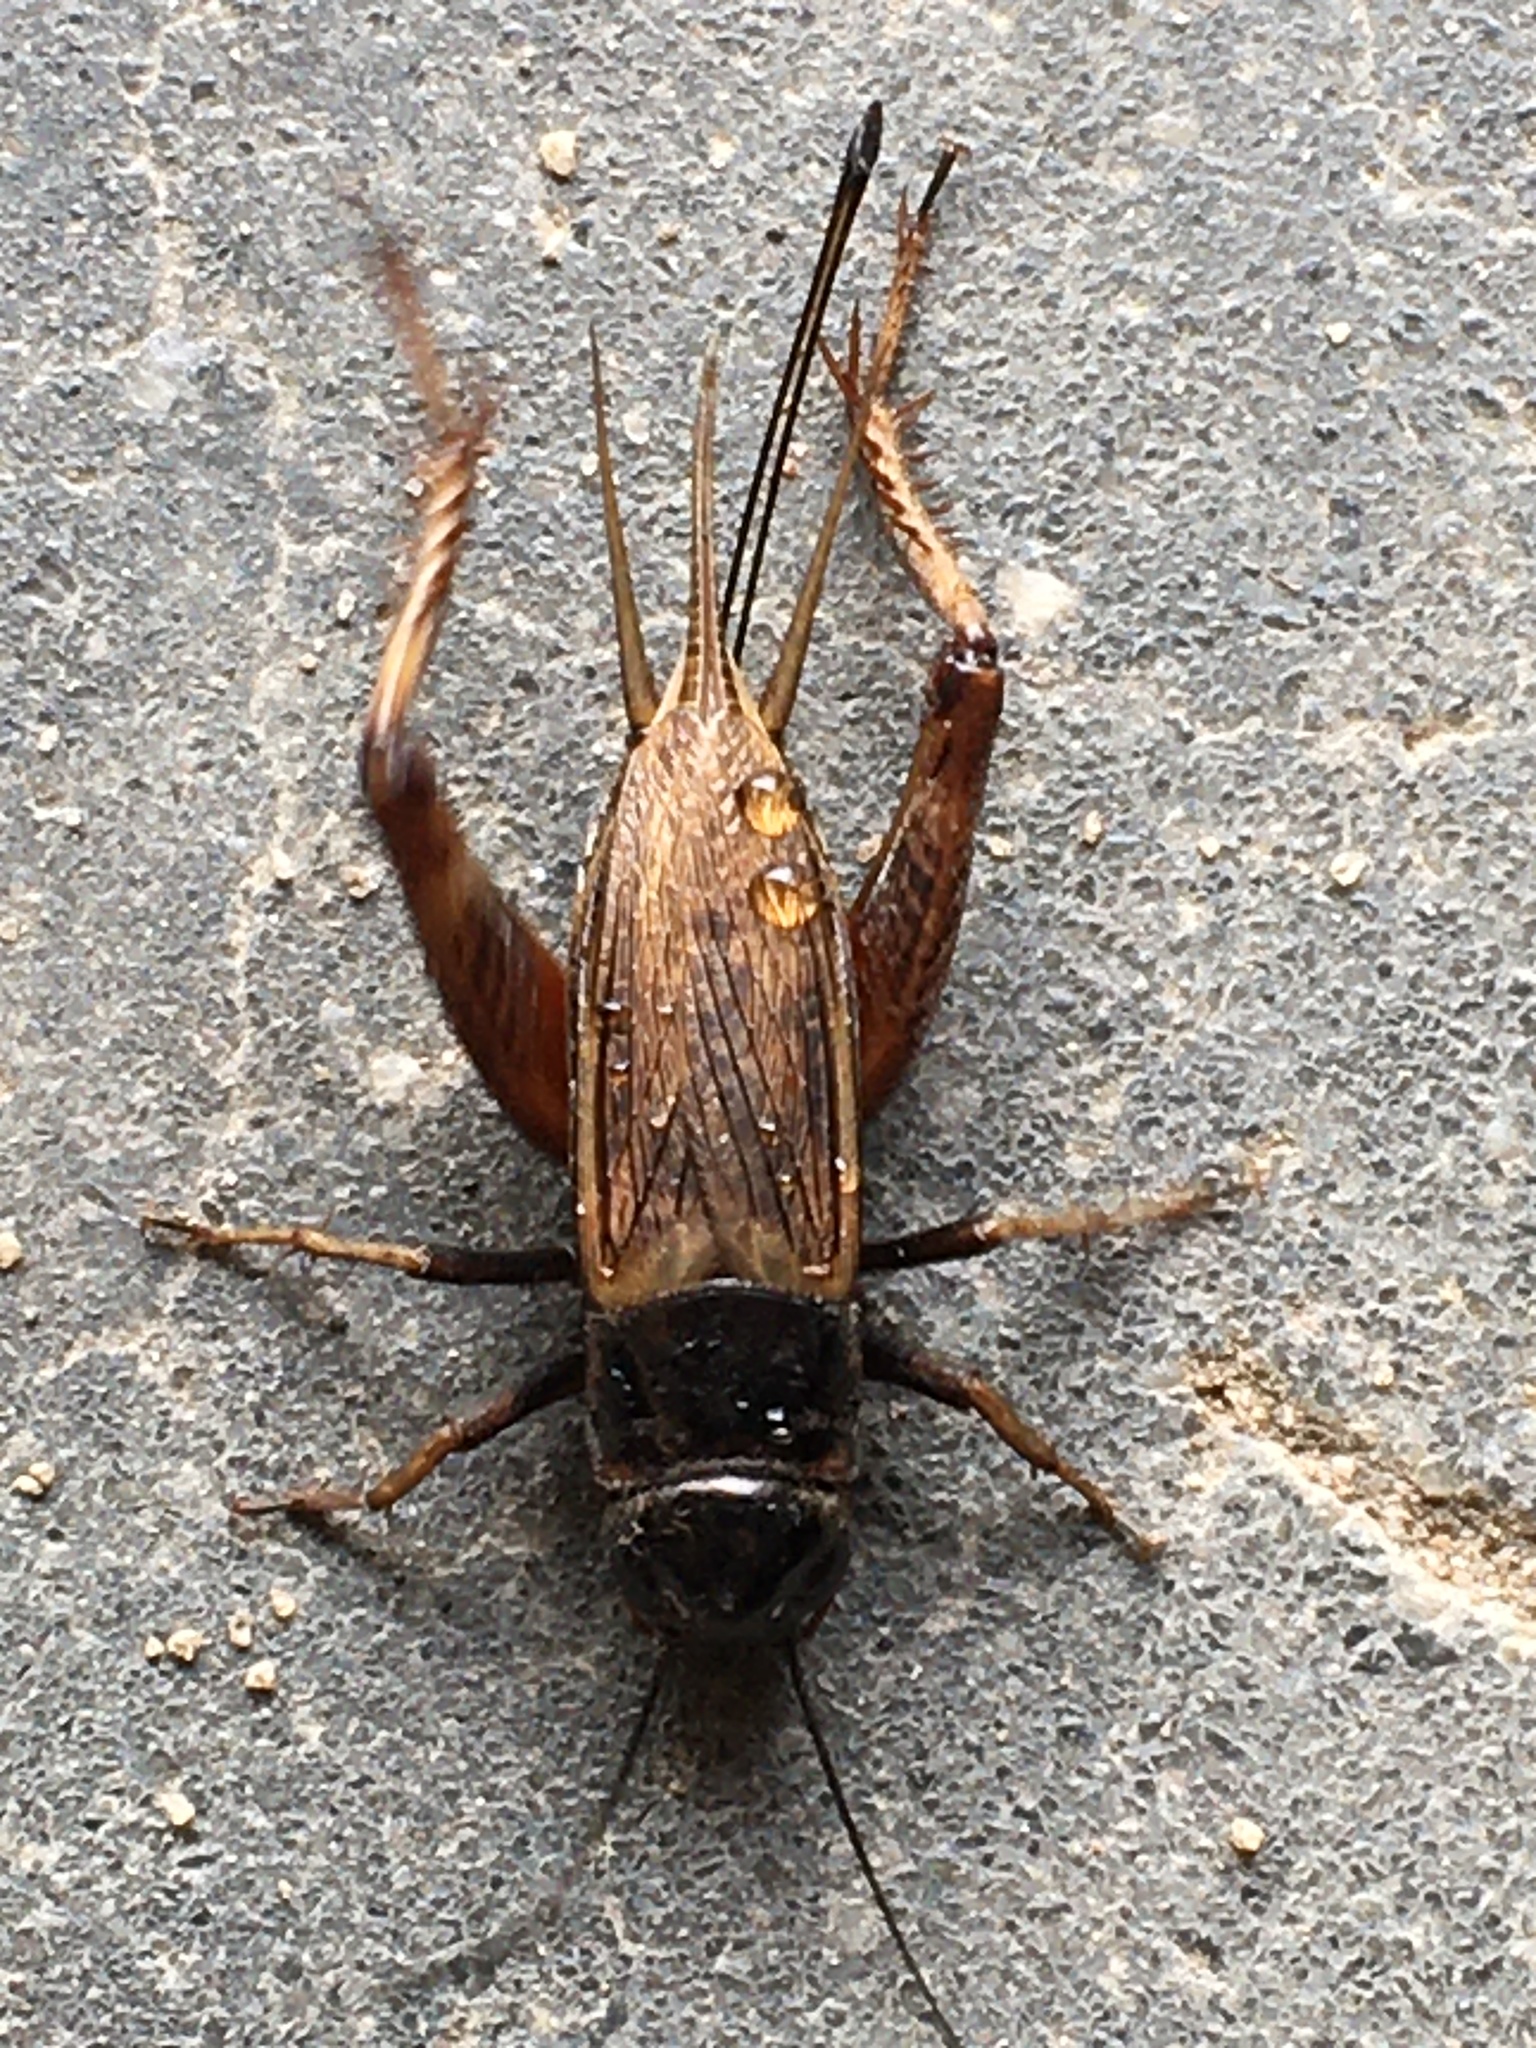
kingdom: Animalia
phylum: Arthropoda
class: Insecta
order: Orthoptera
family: Gryllidae
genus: Gryllus
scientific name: Gryllus pennsylvanicus
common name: Fall field cricket
